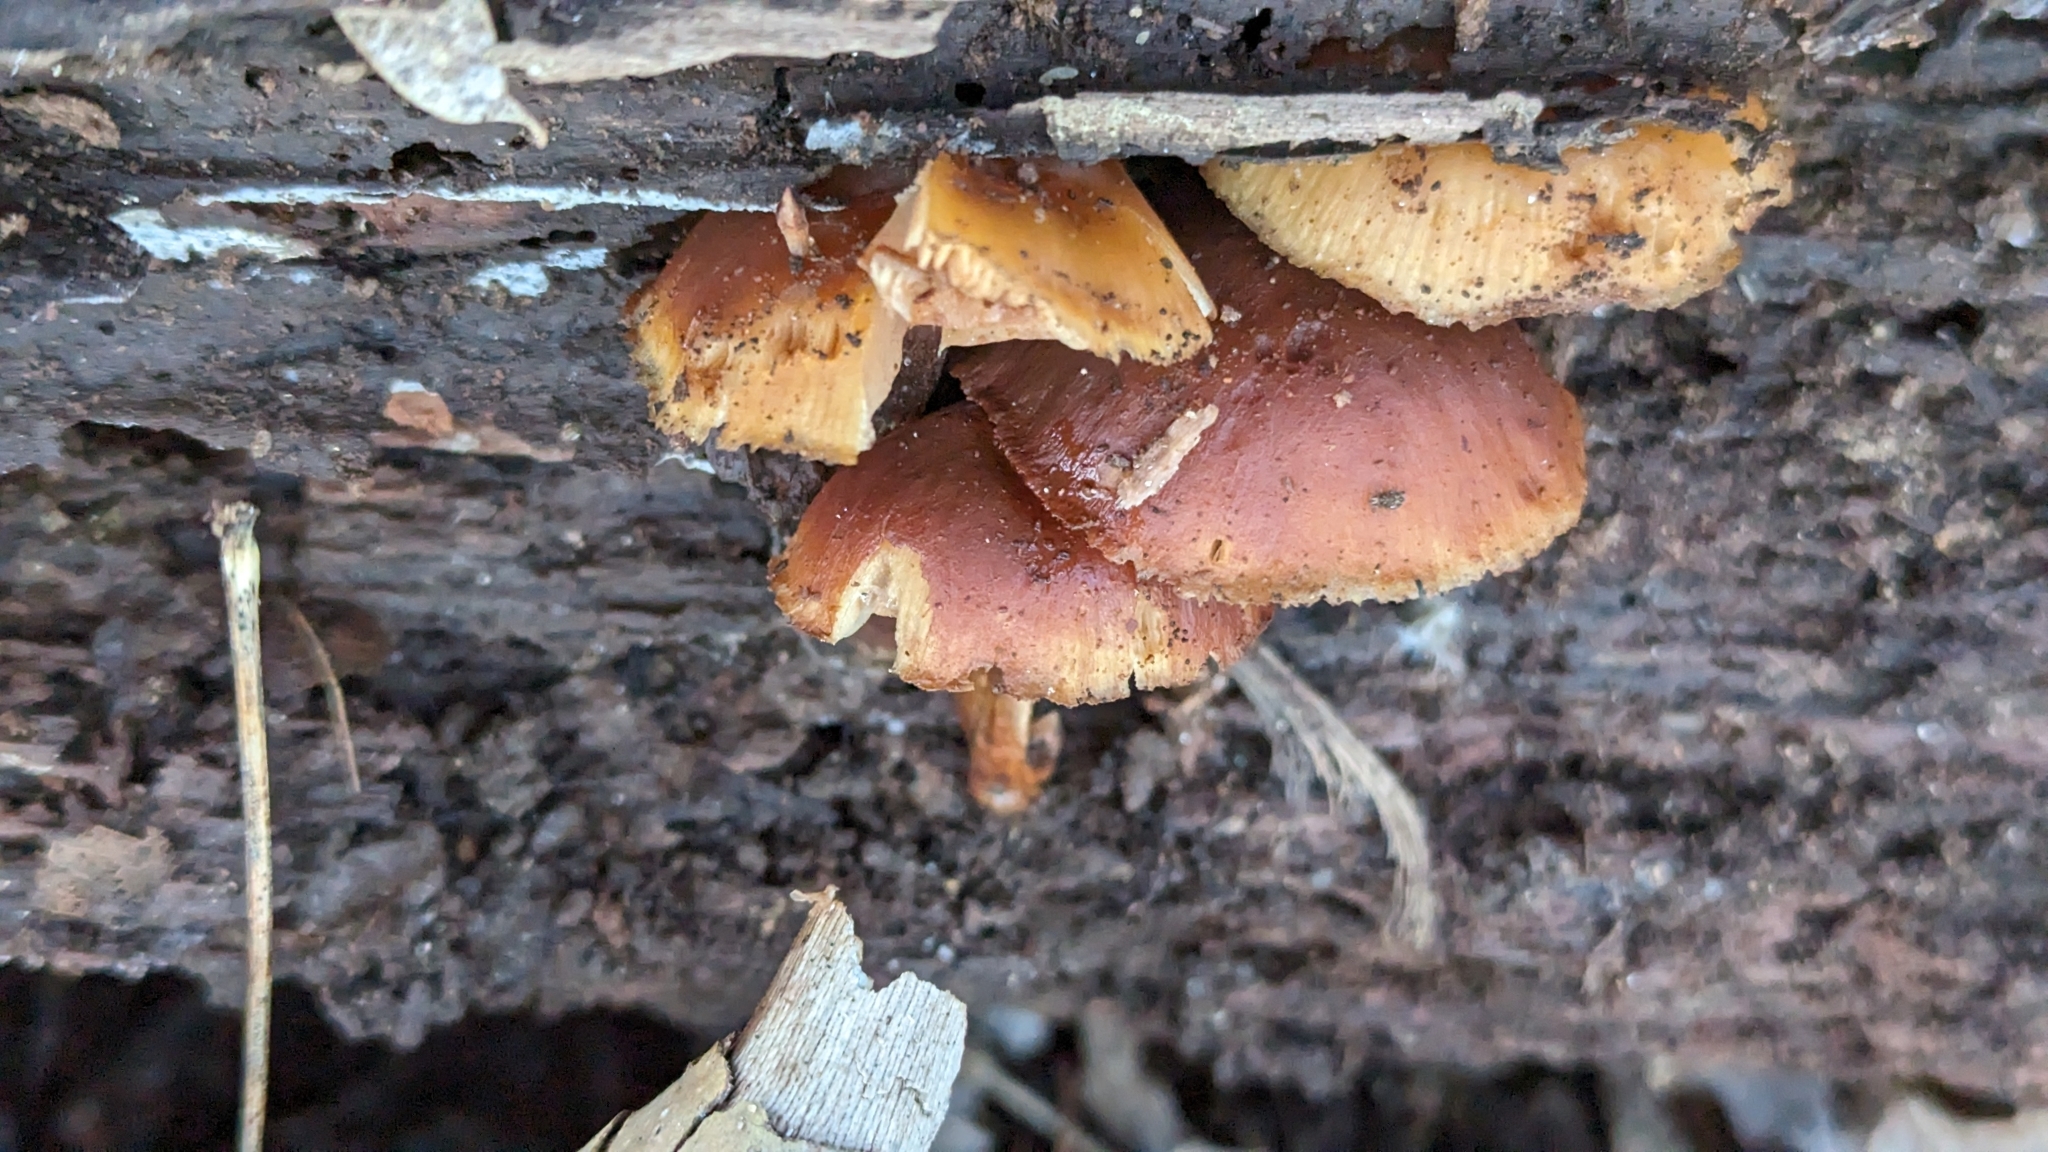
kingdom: Fungi
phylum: Basidiomycota
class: Agaricomycetes
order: Agaricales
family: Hymenogastraceae
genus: Galerina
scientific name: Galerina marginata
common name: Funeral bell
